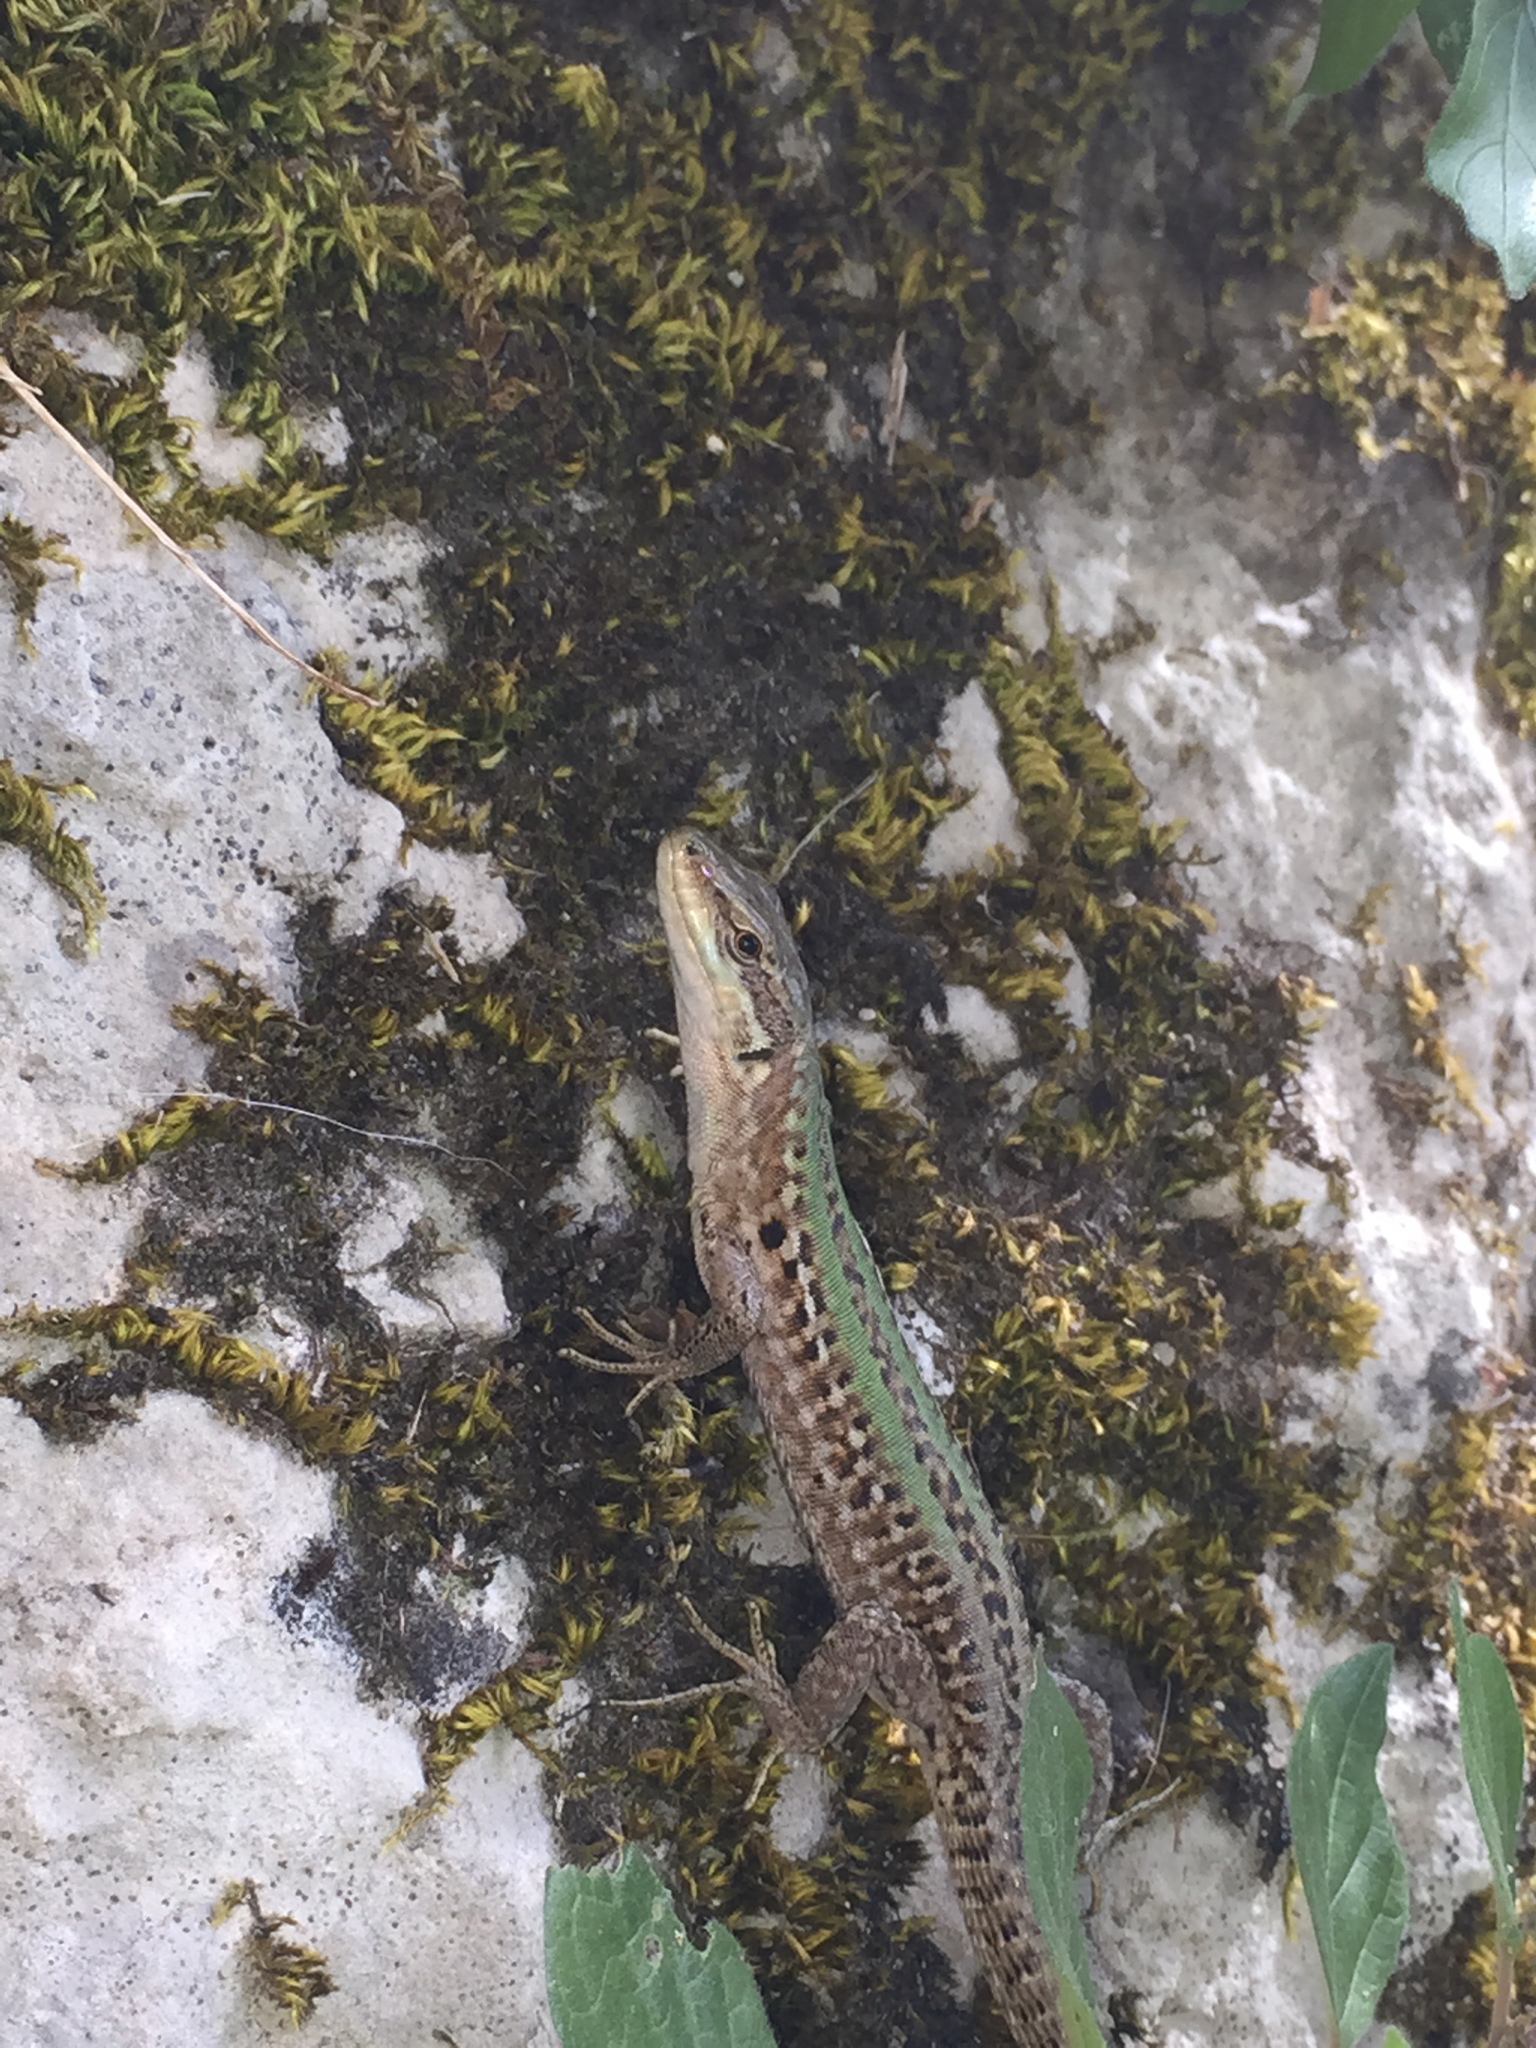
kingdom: Animalia
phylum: Chordata
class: Squamata
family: Lacertidae
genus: Podarcis
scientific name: Podarcis siculus
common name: Italian wall lizard
